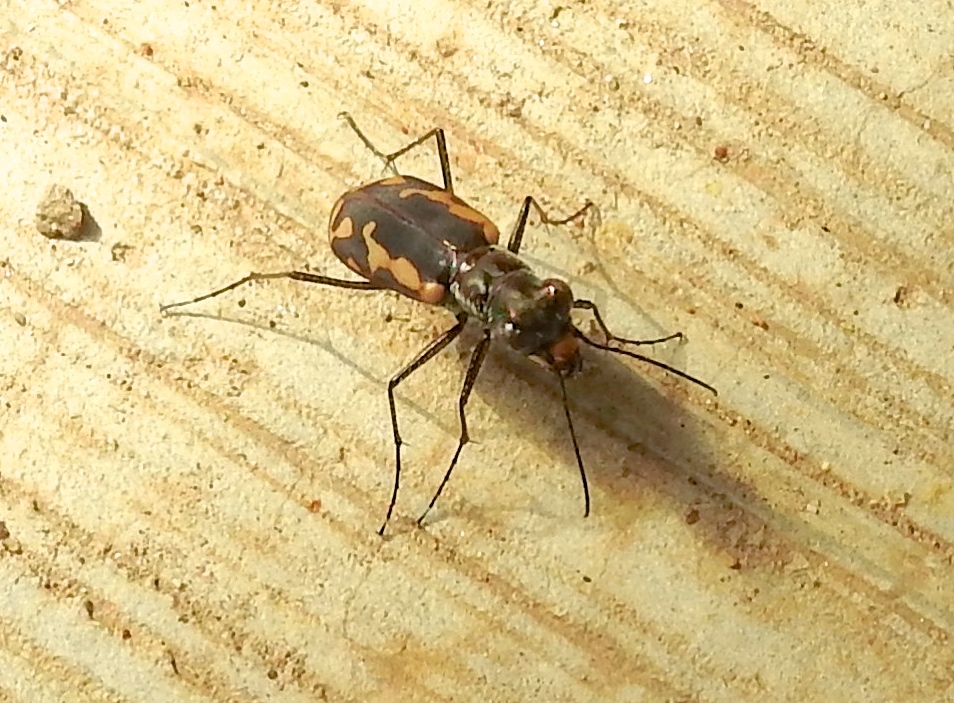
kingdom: Animalia
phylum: Arthropoda
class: Insecta
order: Coleoptera
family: Carabidae
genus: Cicindela
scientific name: Cicindela hydrophoba
